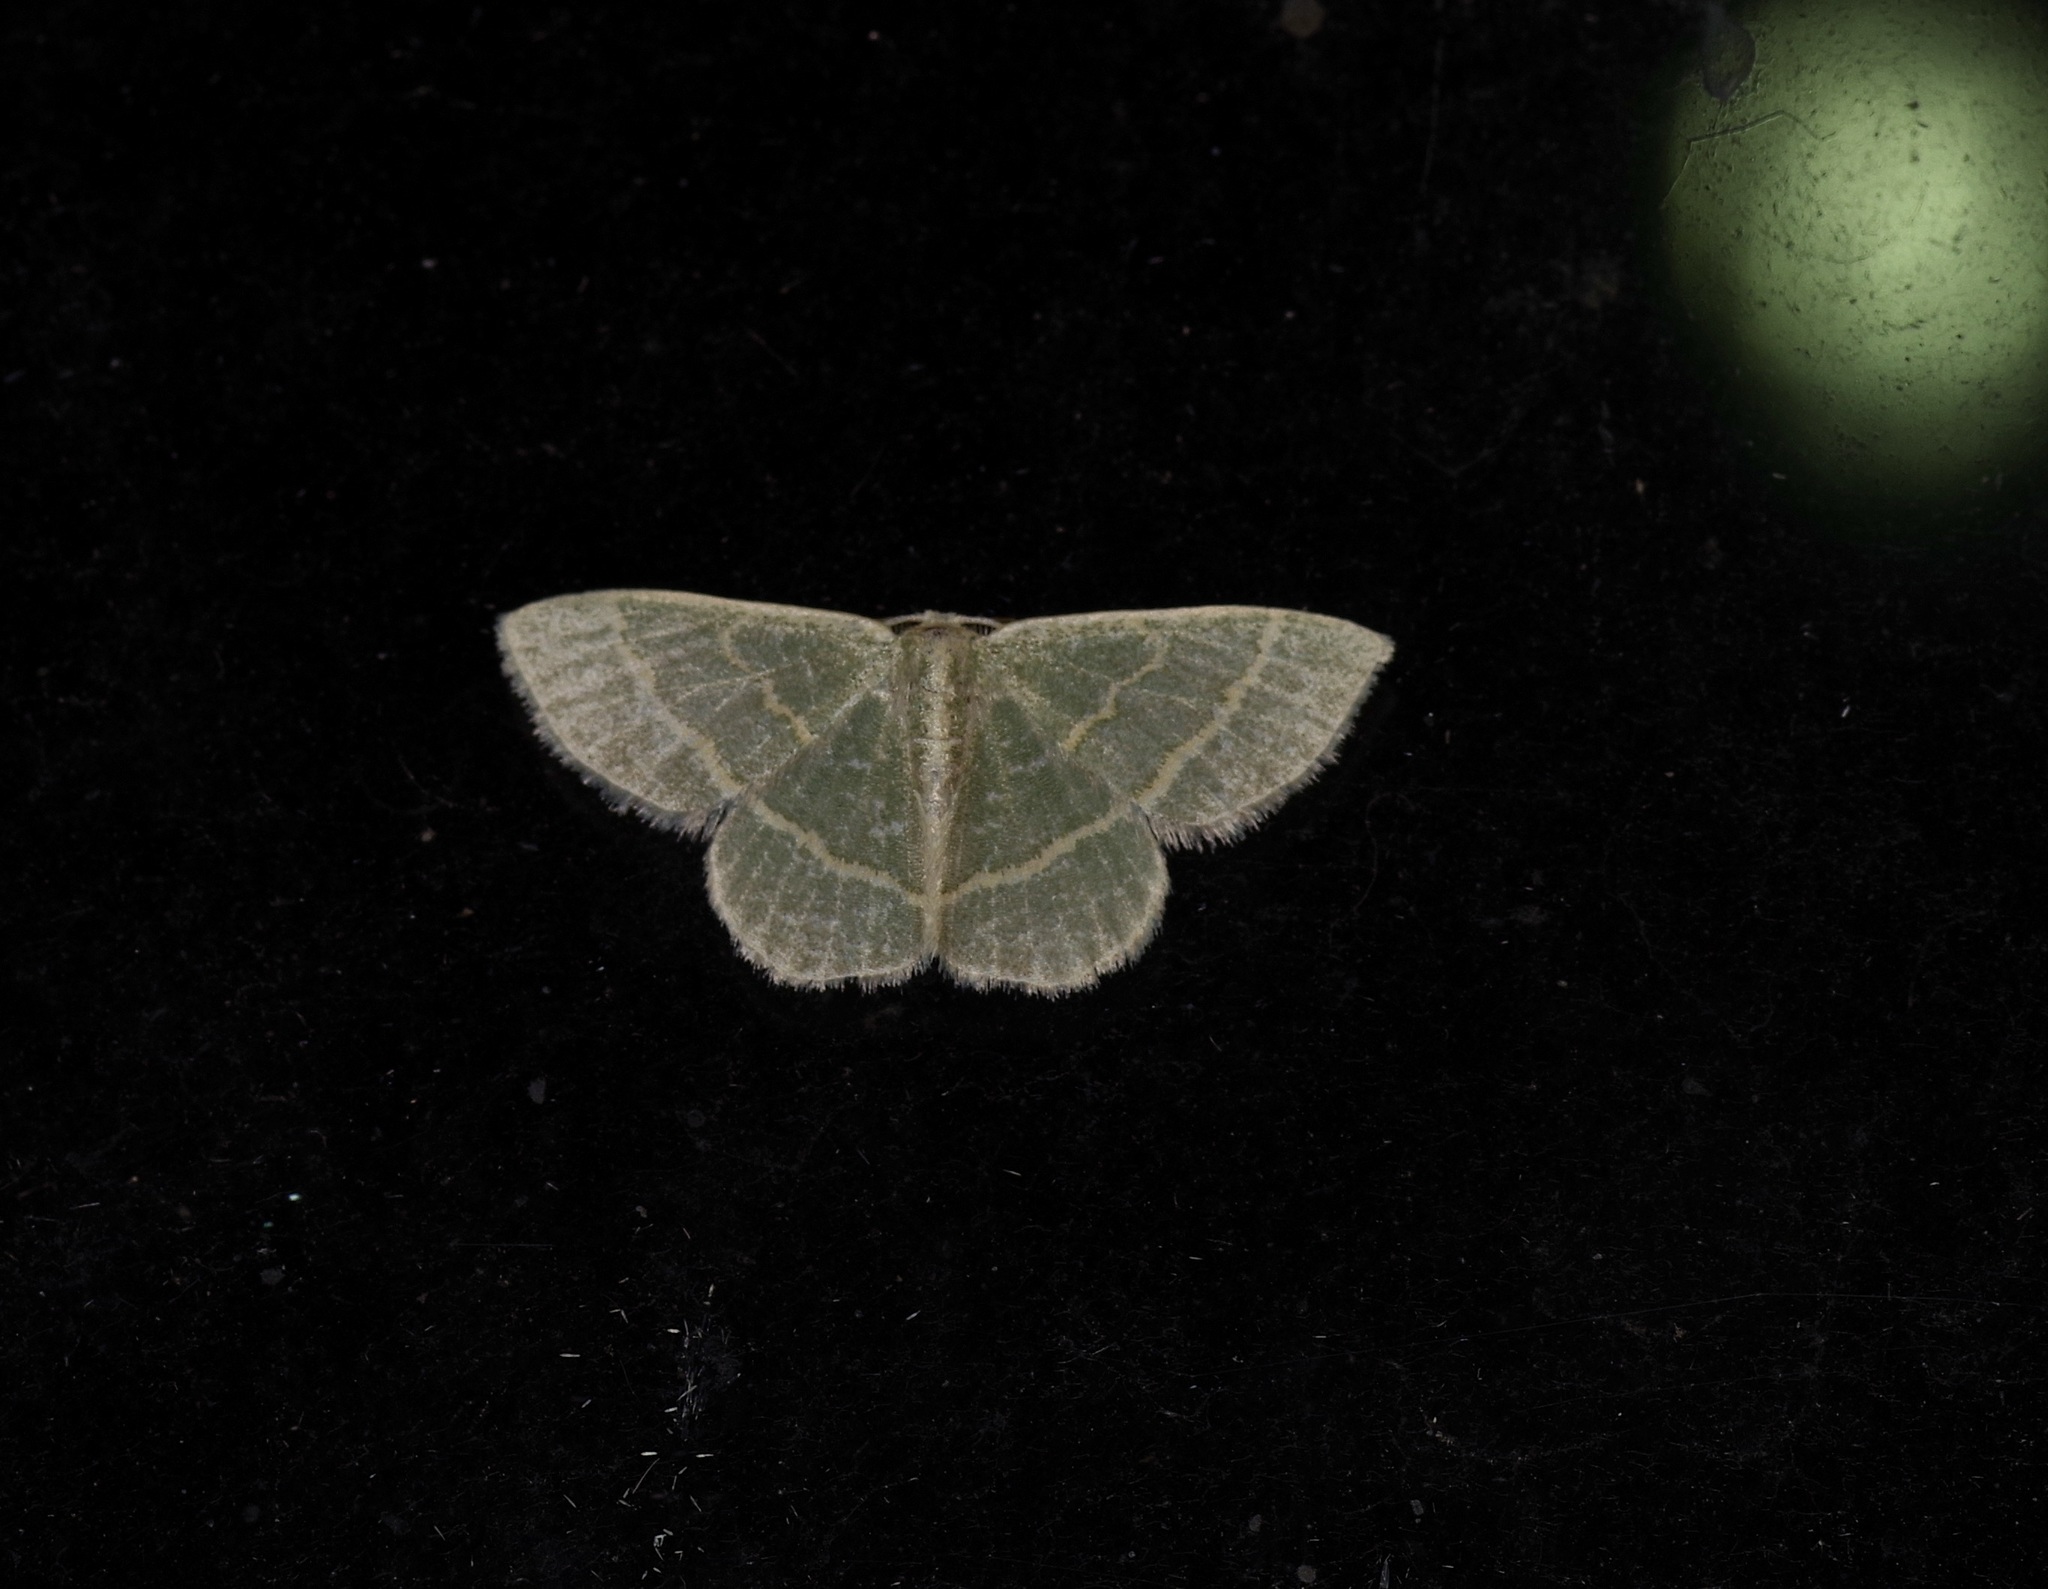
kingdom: Animalia
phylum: Arthropoda
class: Insecta
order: Lepidoptera
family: Geometridae
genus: Chlorochlamys
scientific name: Chlorochlamys chloroleucaria
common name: Blackberry looper
